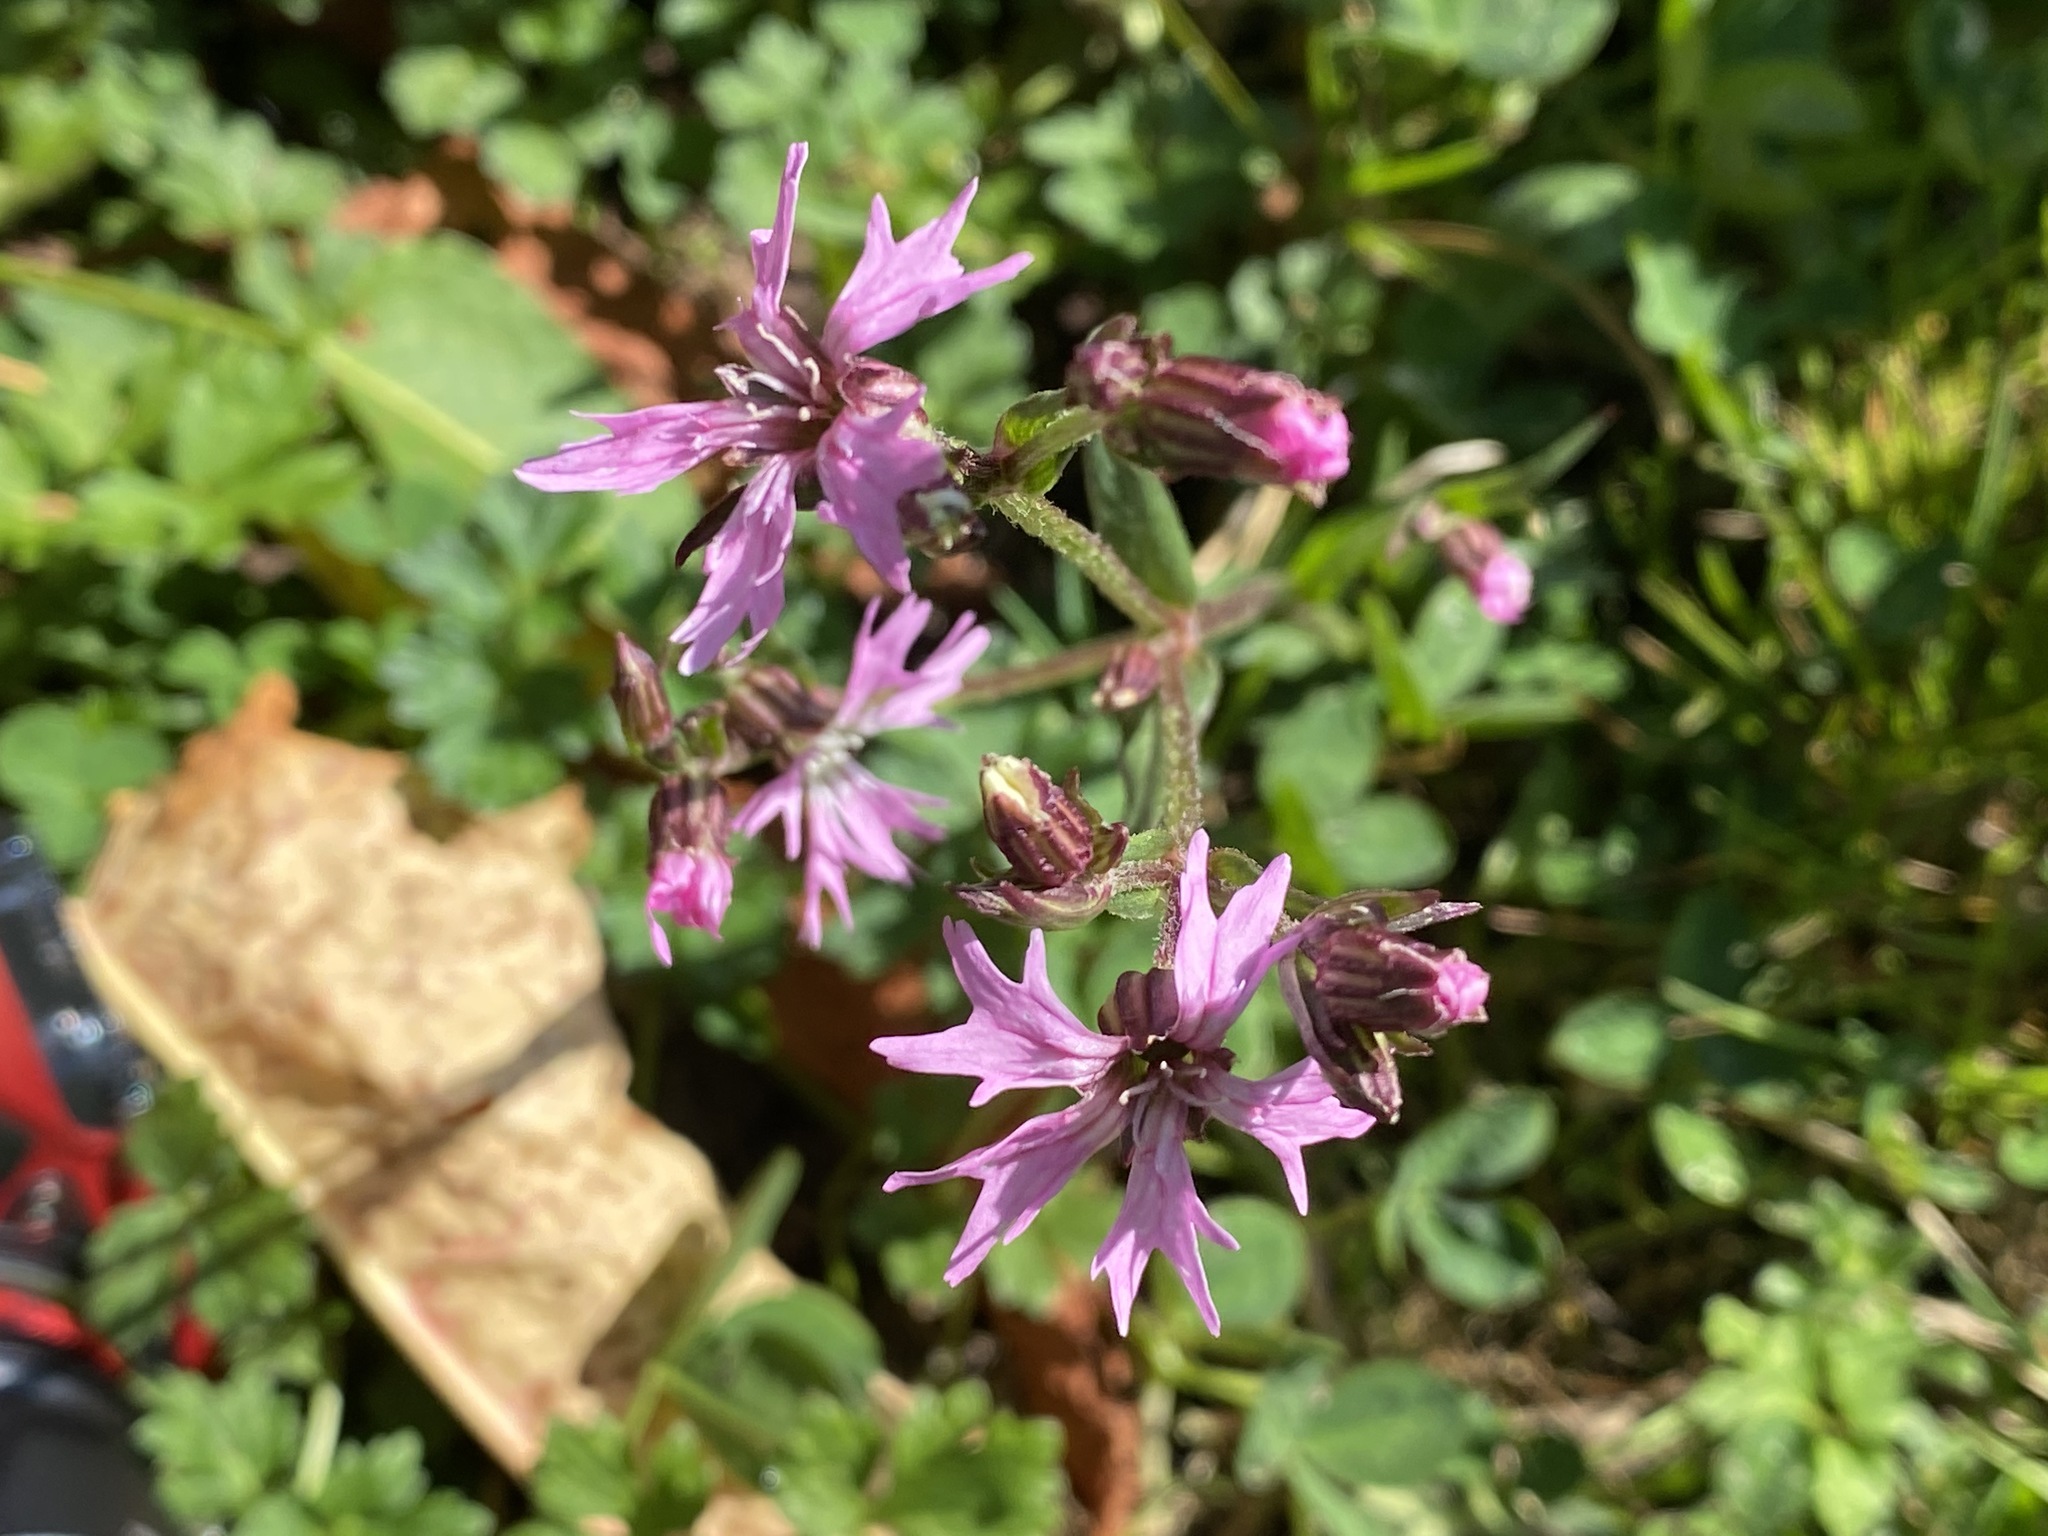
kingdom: Plantae
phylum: Tracheophyta
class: Magnoliopsida
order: Caryophyllales
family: Caryophyllaceae
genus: Silene
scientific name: Silene flos-cuculi
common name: Ragged-robin
